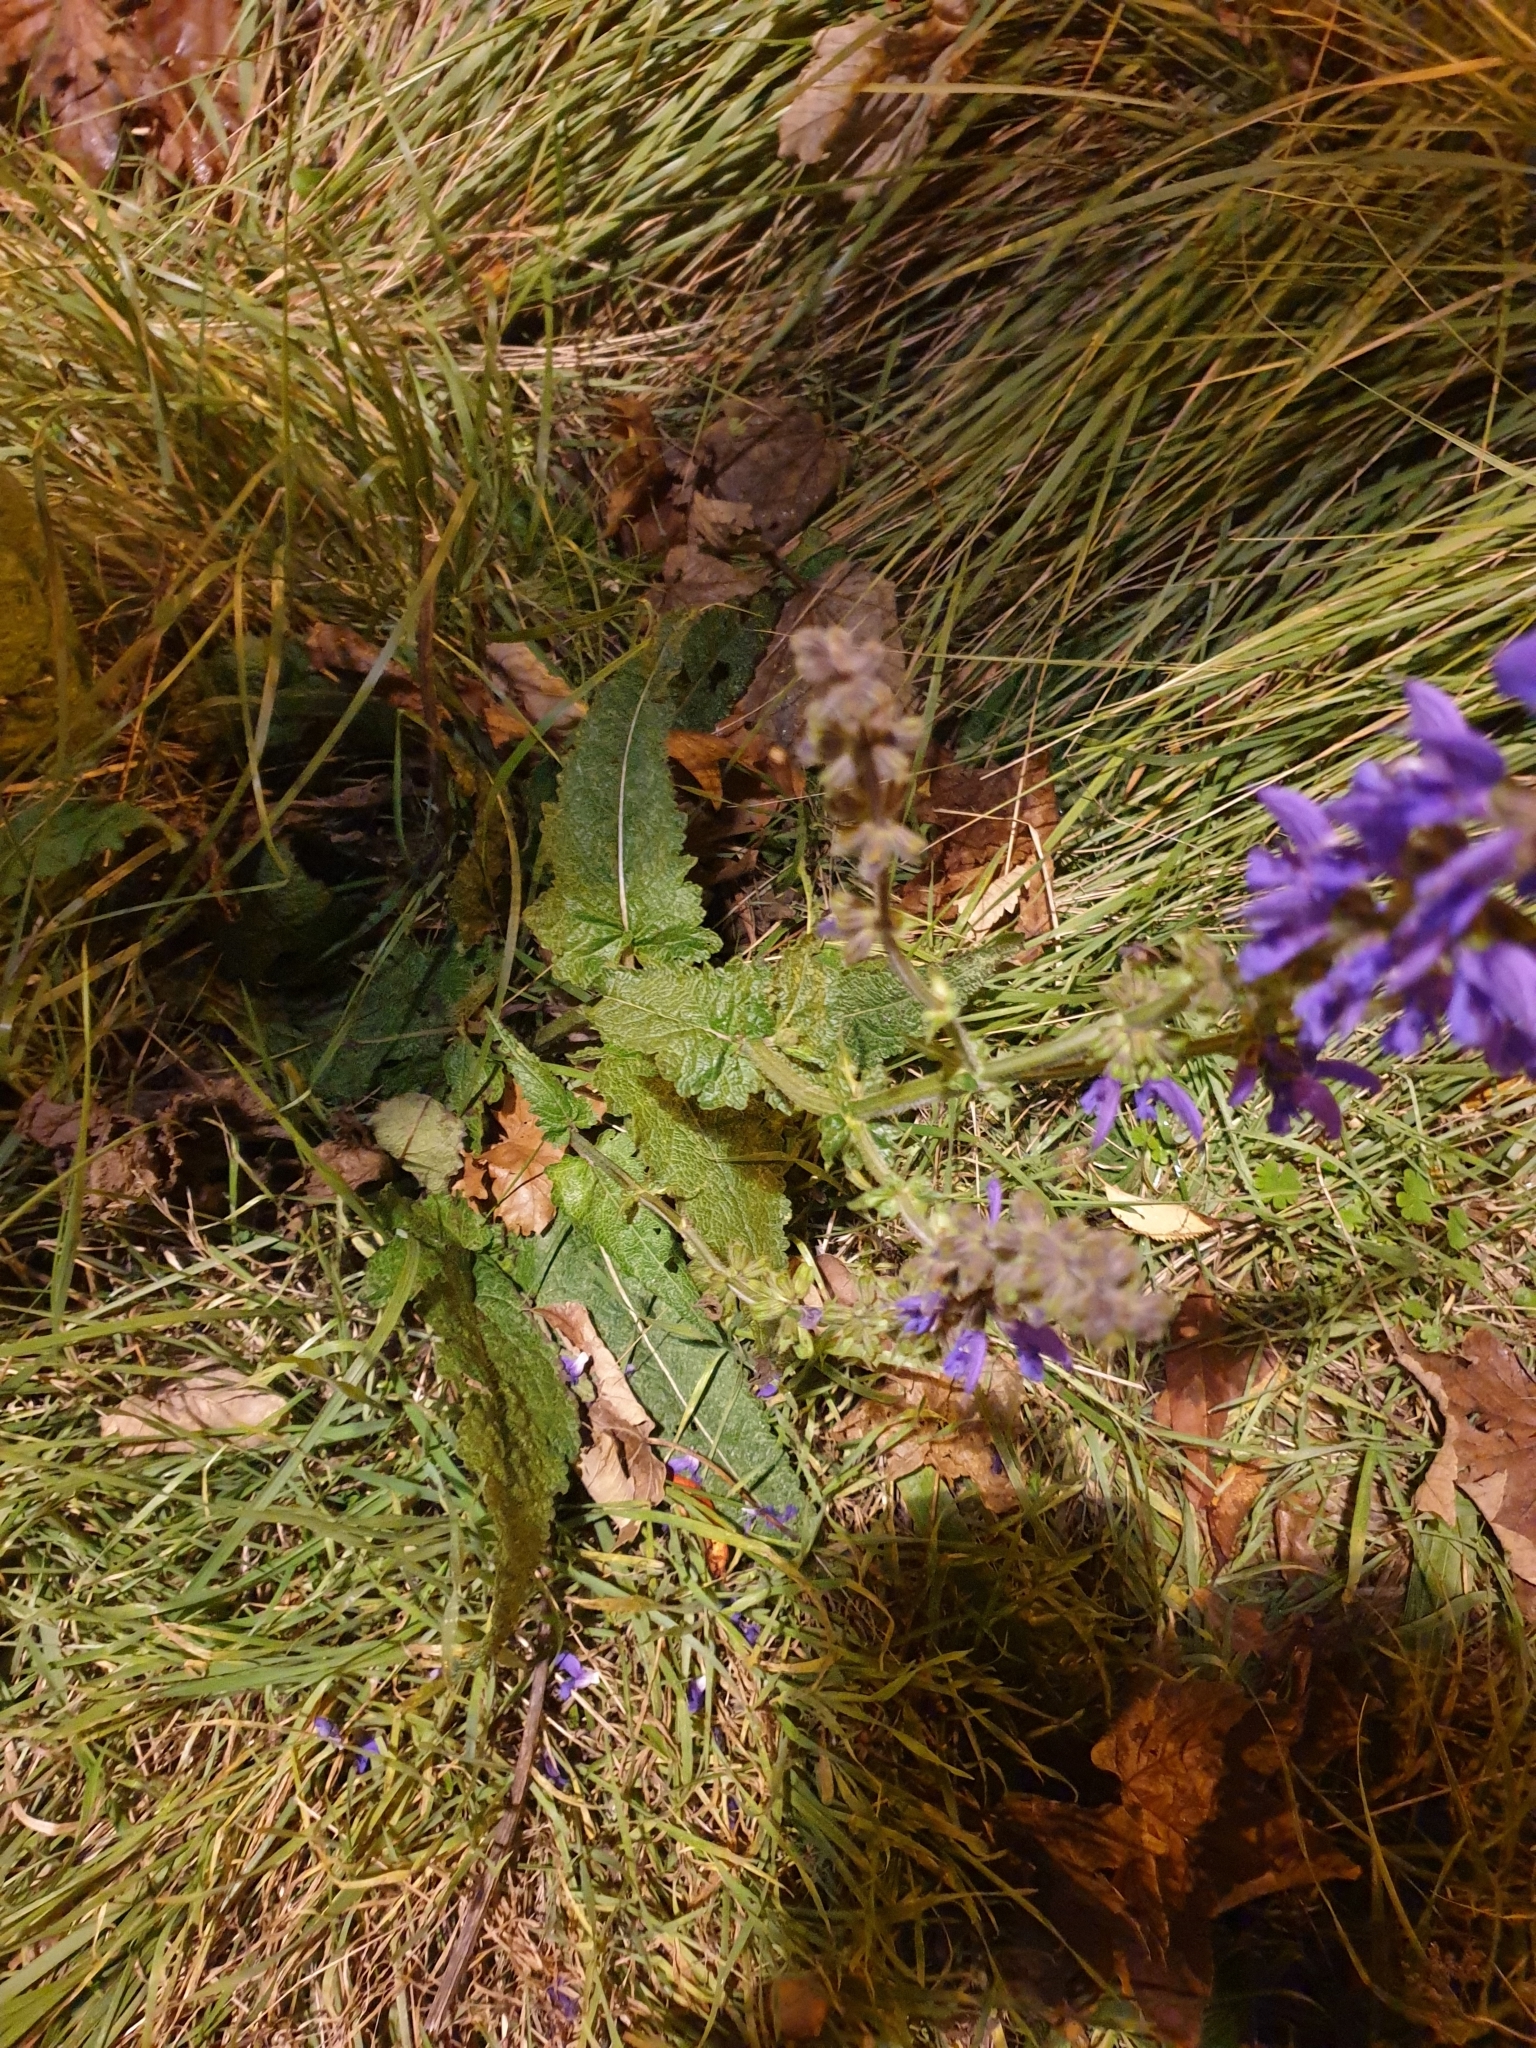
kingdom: Plantae
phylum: Tracheophyta
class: Magnoliopsida
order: Lamiales
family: Lamiaceae
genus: Salvia
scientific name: Salvia pratensis
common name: Meadow sage
